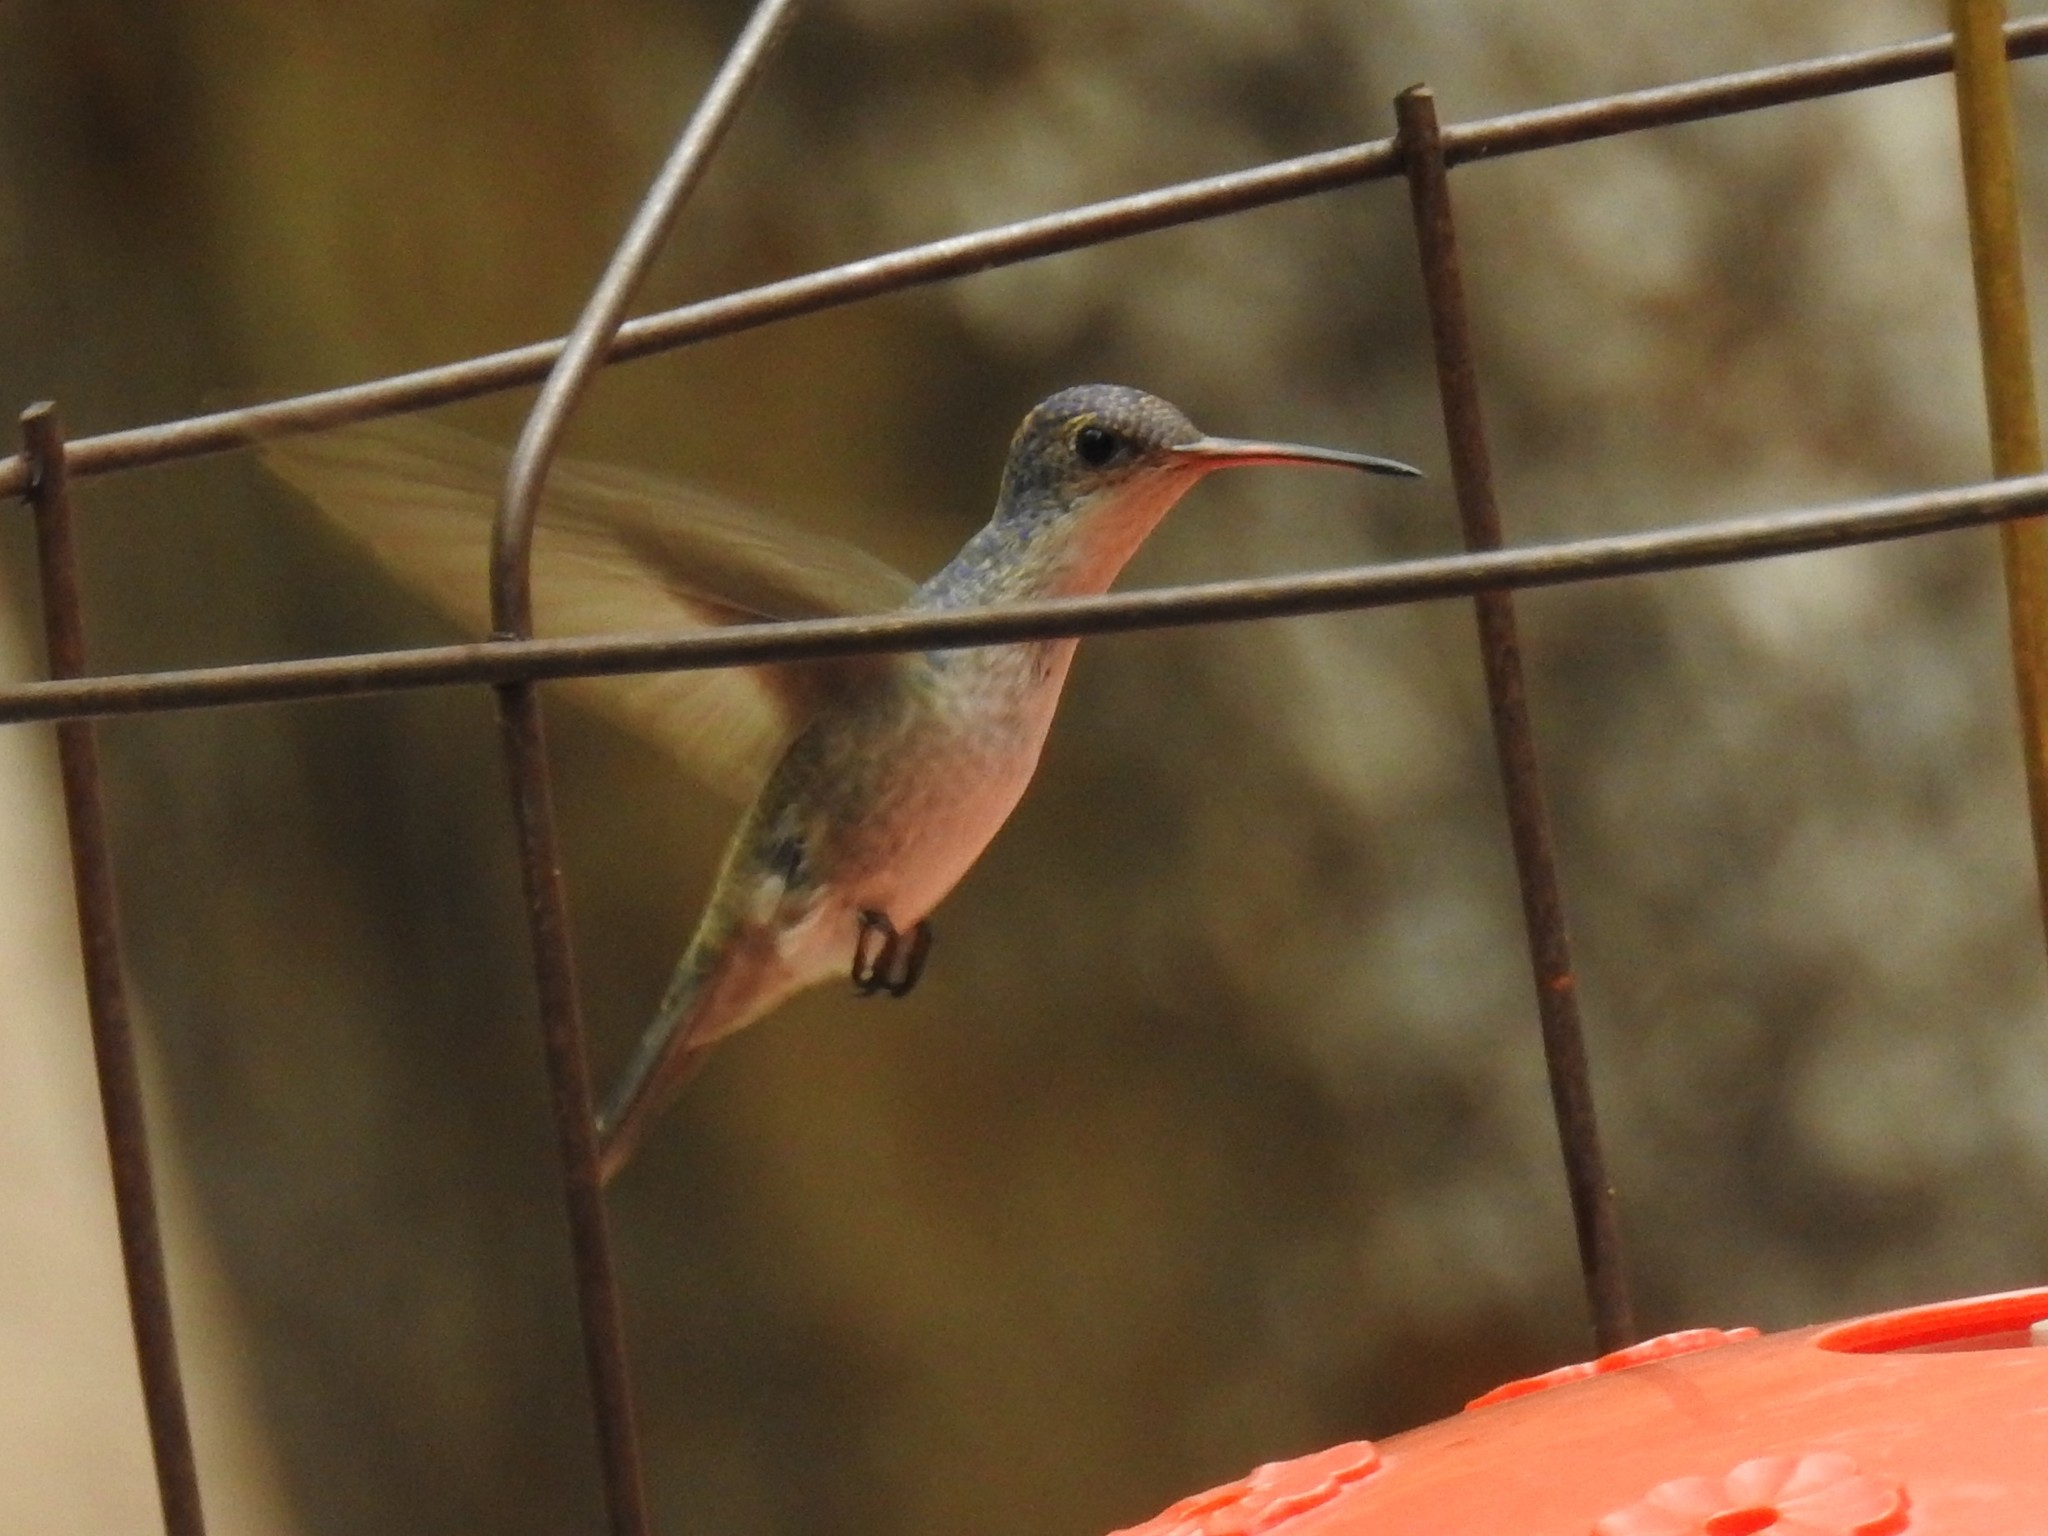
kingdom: Animalia
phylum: Chordata
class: Aves
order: Apodiformes
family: Trochilidae
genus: Leucolia
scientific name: Leucolia violiceps
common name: Violet-crowned hummingbird
